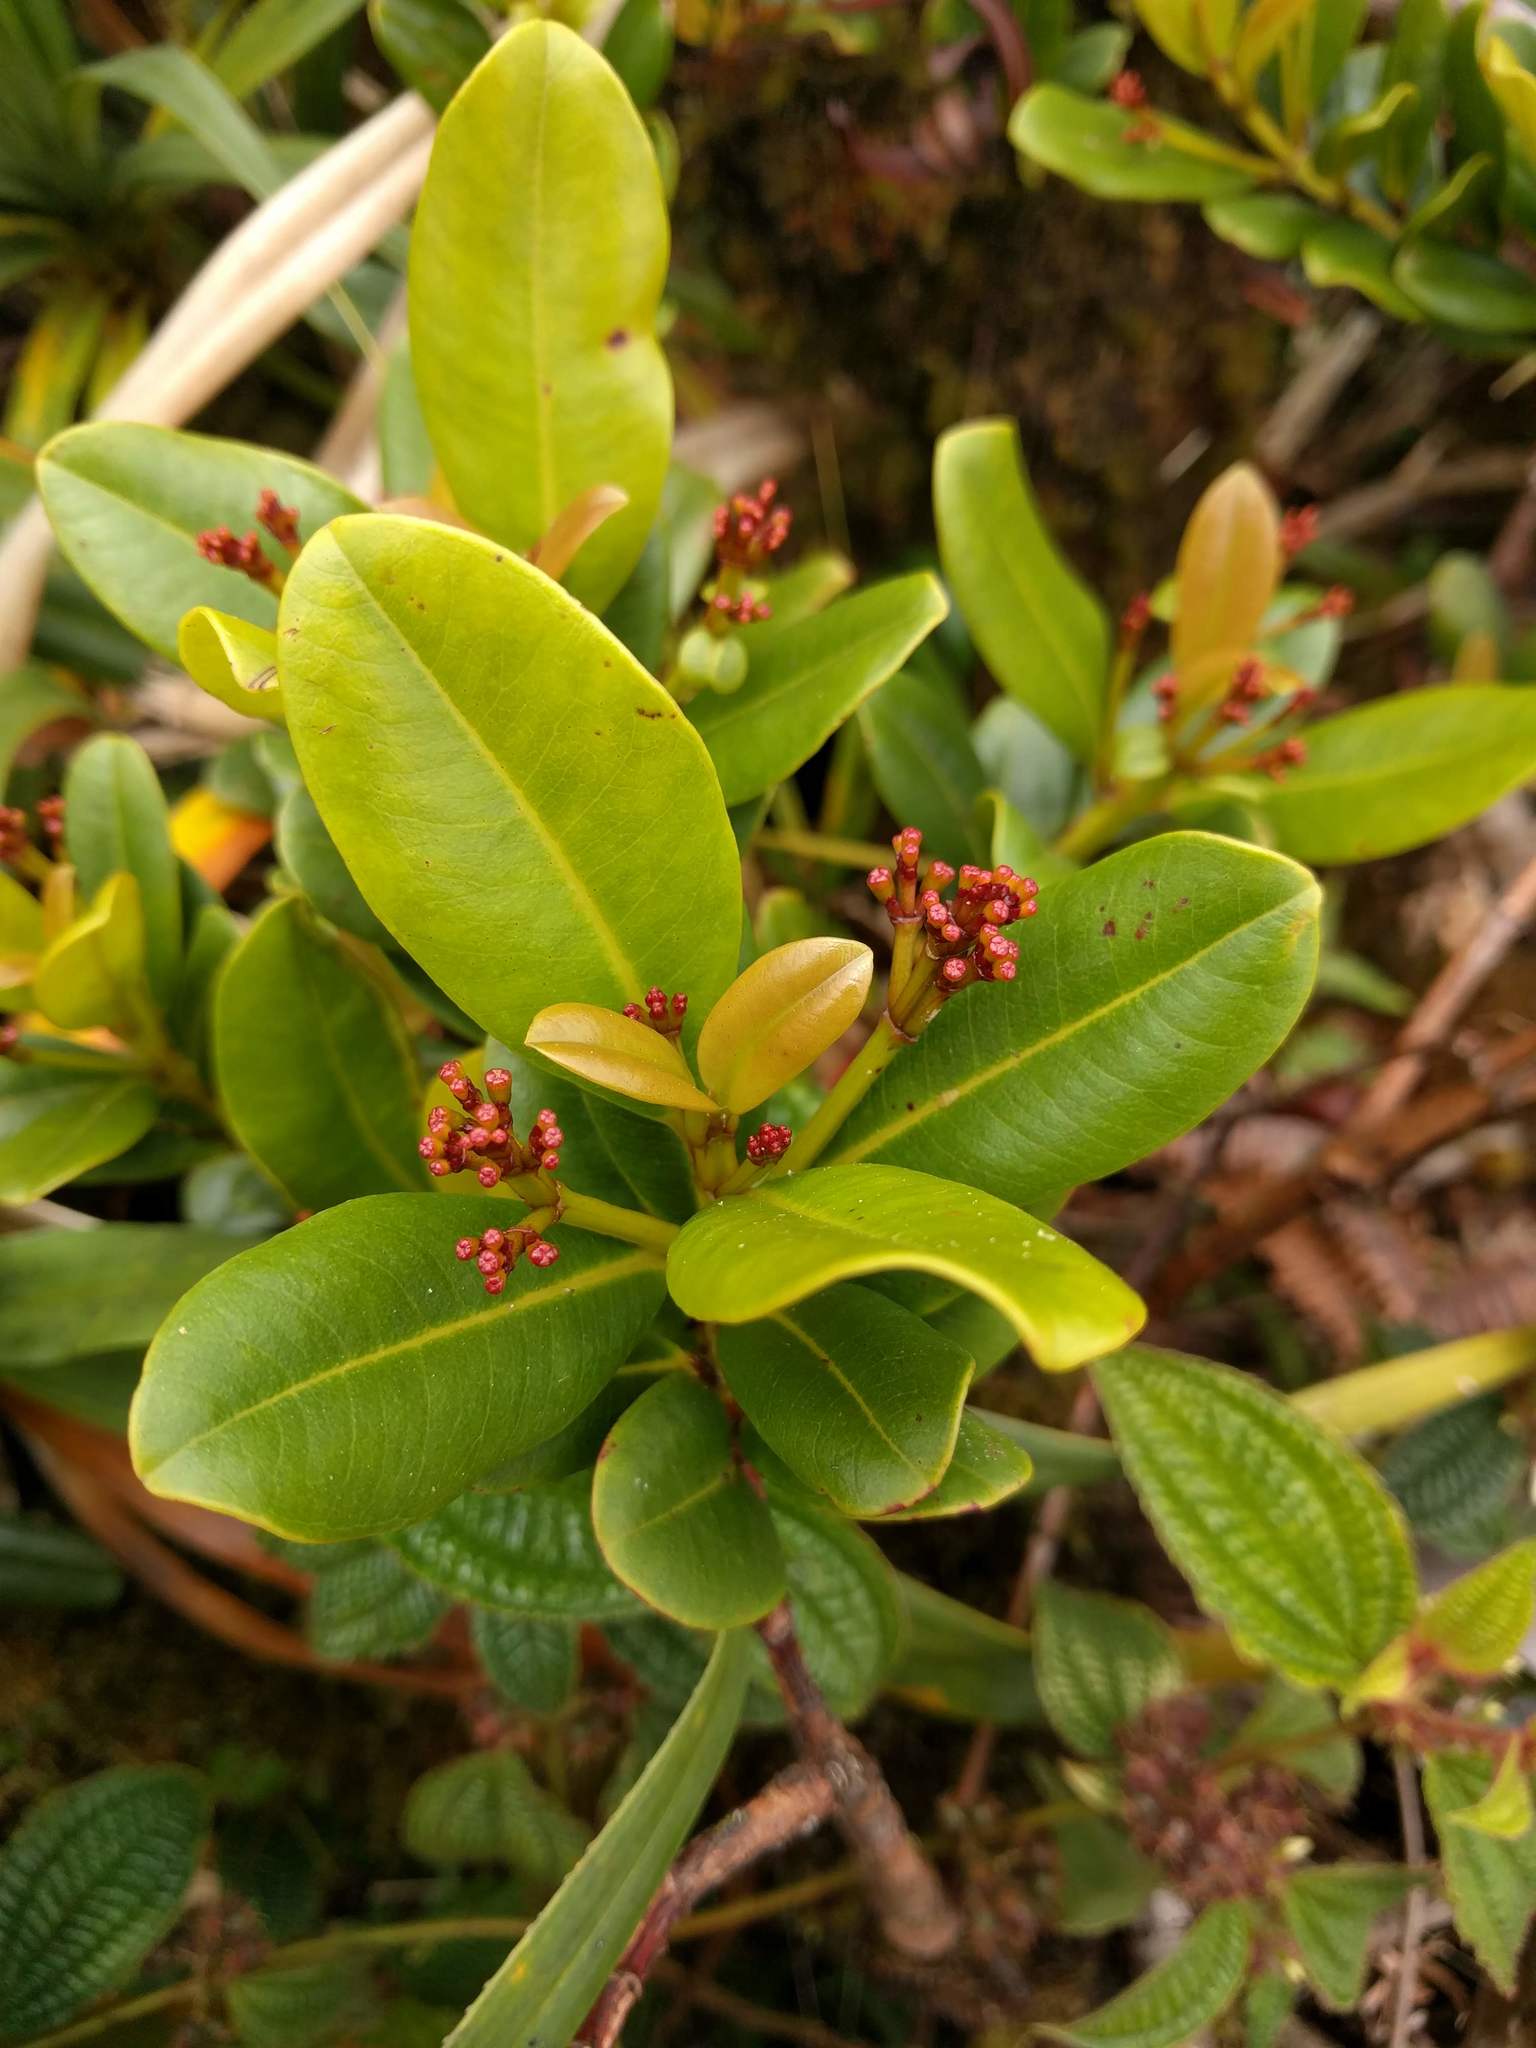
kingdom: Plantae
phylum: Tracheophyta
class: Magnoliopsida
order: Myrtales
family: Myrtaceae
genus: Syzygium
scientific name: Syzygium sandwicense
